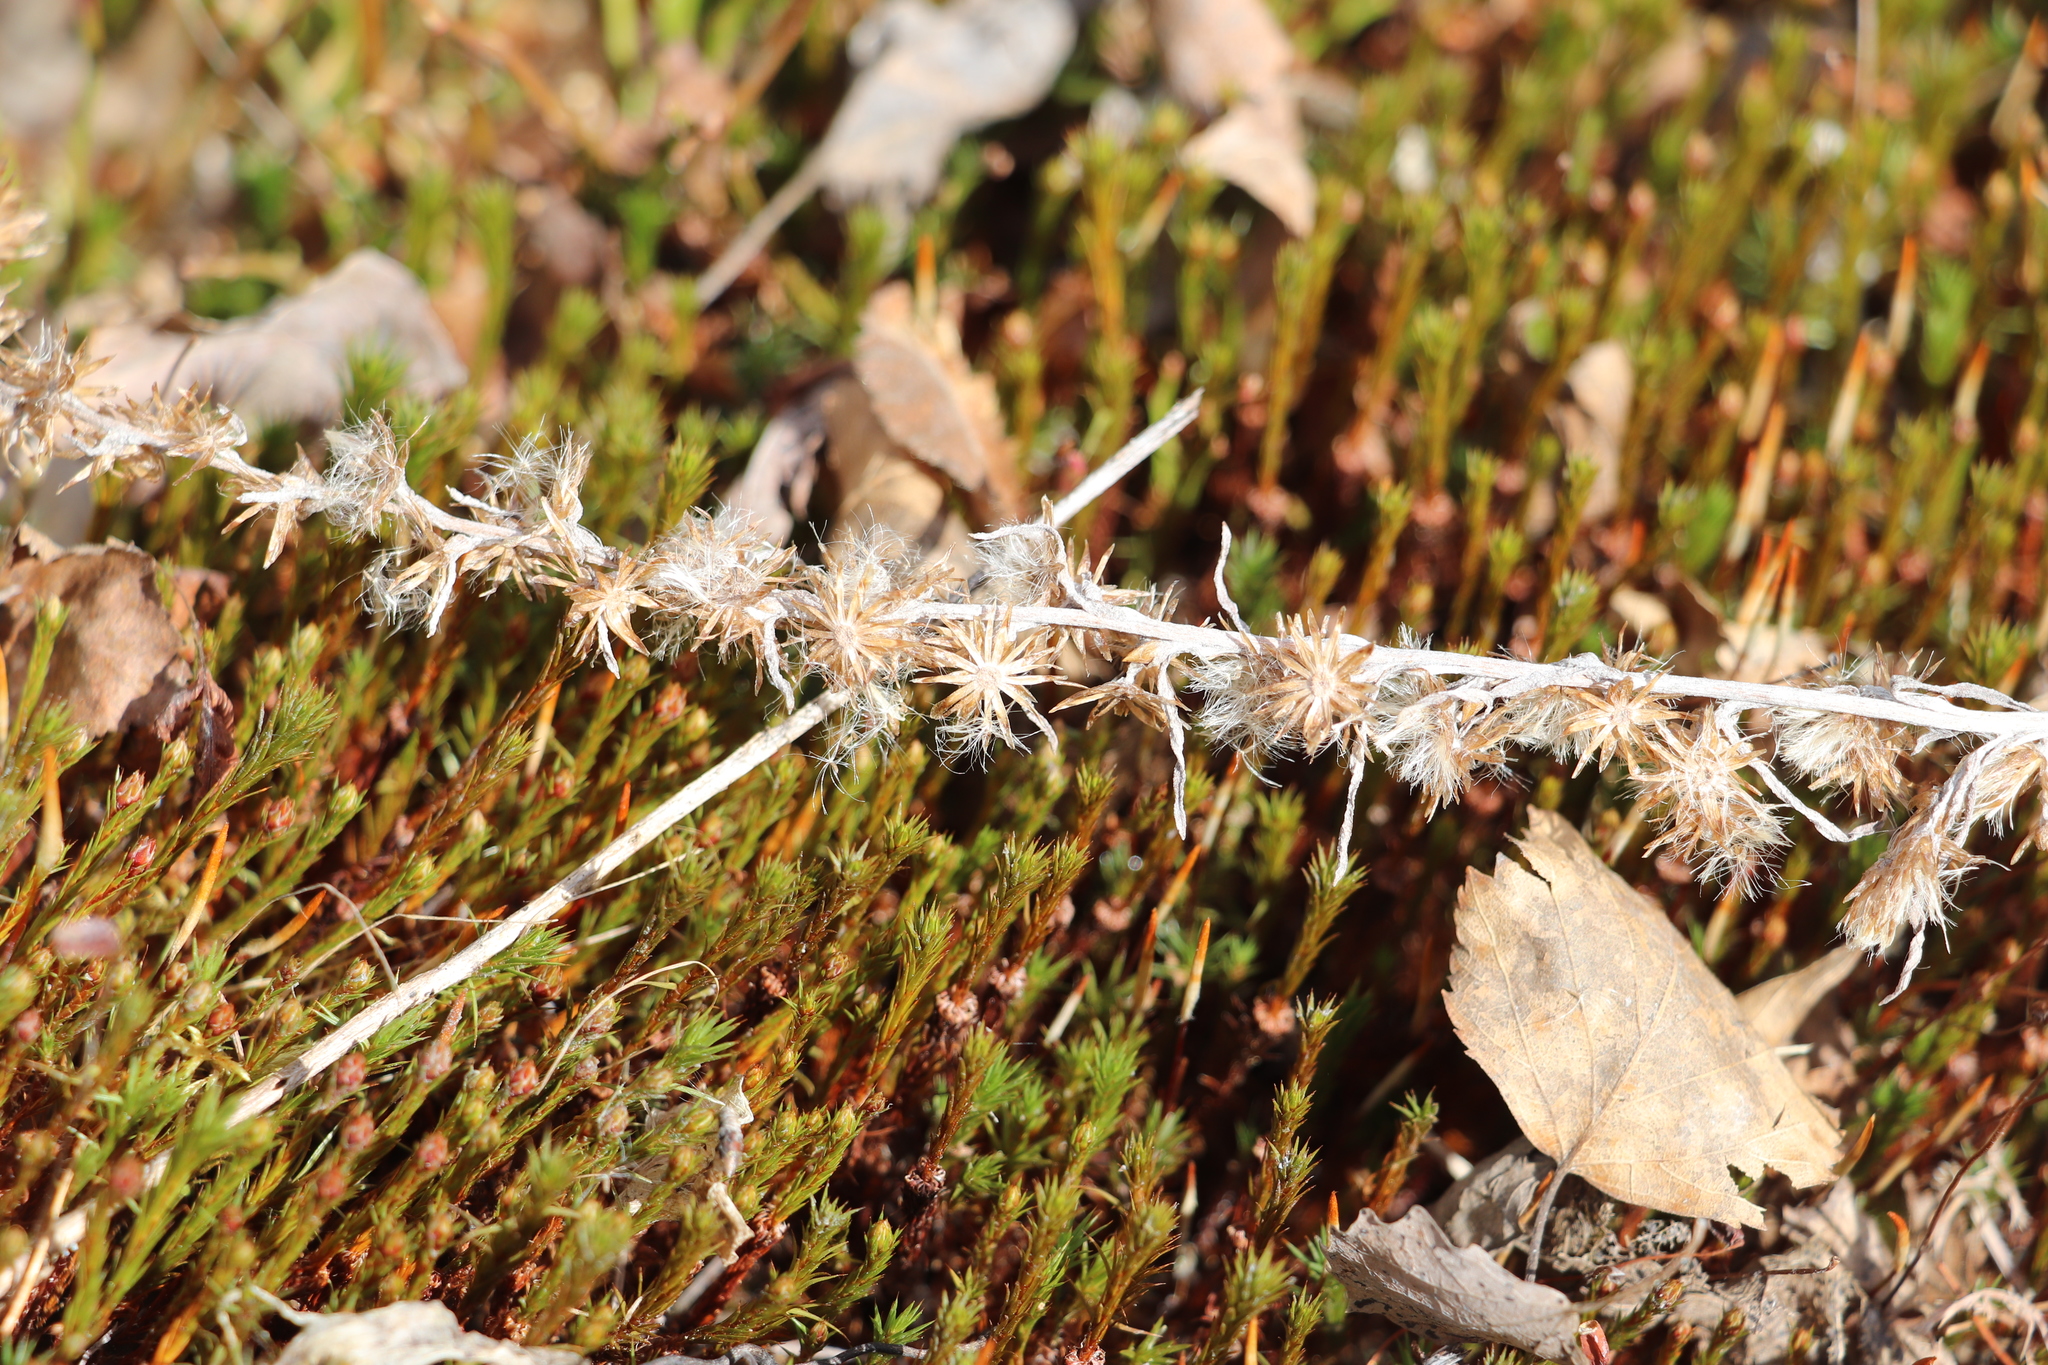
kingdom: Plantae
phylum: Tracheophyta
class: Magnoliopsida
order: Asterales
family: Asteraceae
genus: Omalotheca
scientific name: Omalotheca sylvatica
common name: Heath cudweed
